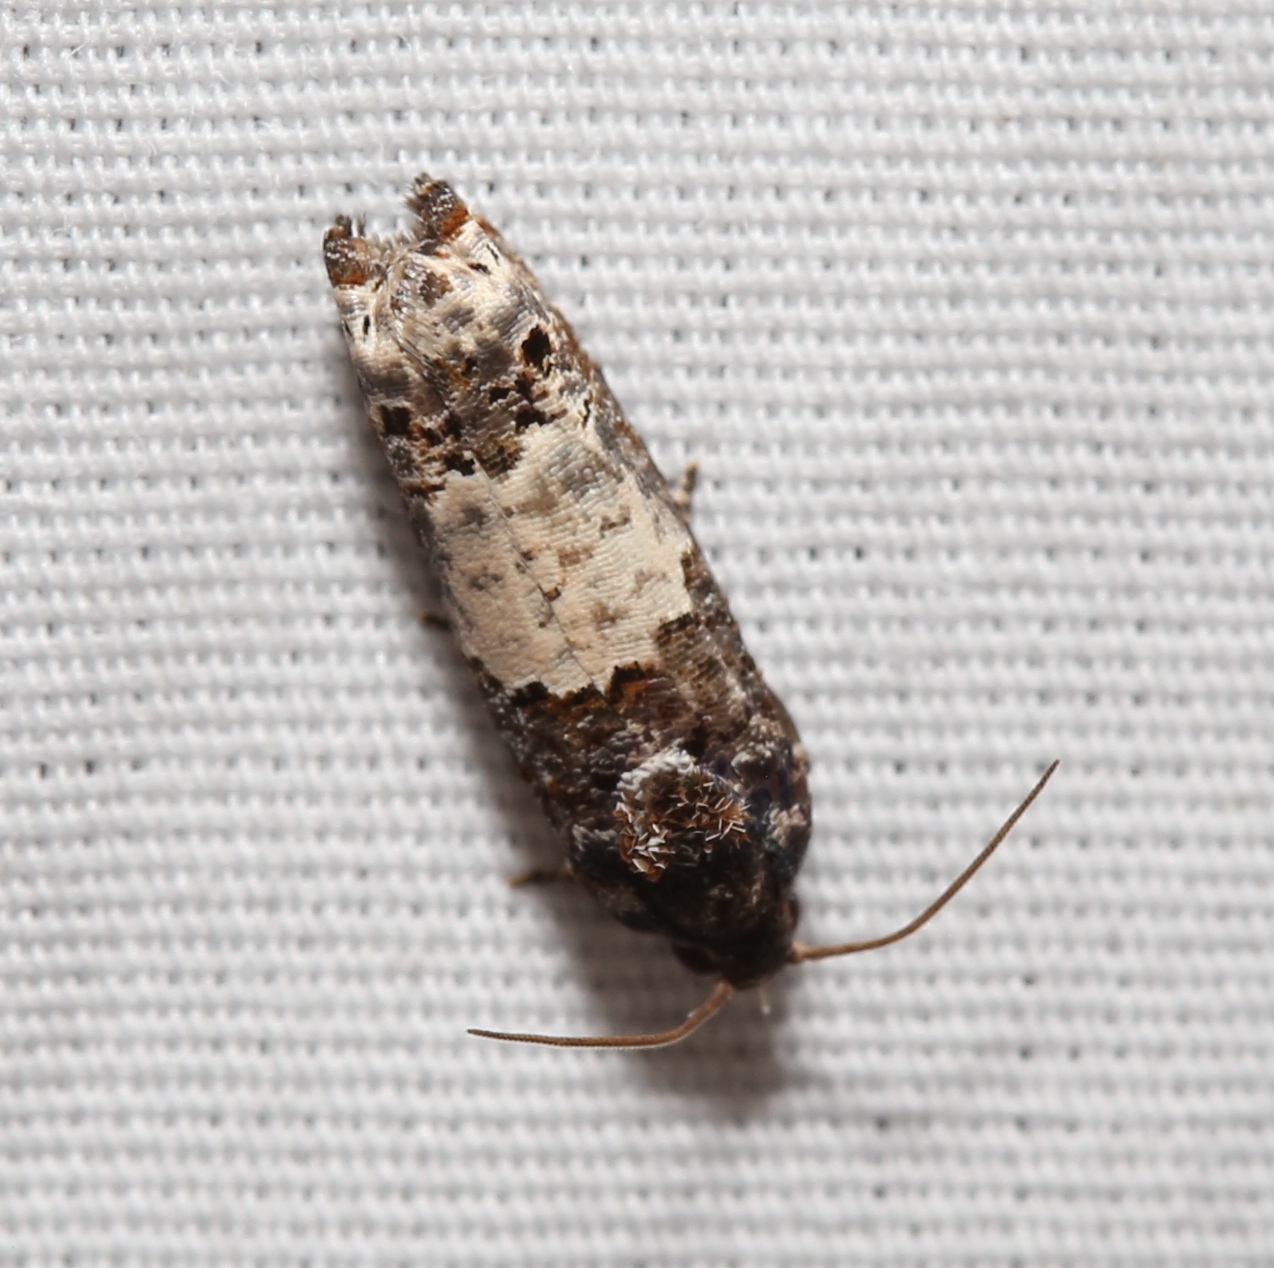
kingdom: Animalia
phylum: Arthropoda
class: Insecta
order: Lepidoptera
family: Tortricidae
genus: Epiblema
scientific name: Epiblema carolinana
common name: Gray-blotched epiblema moth
